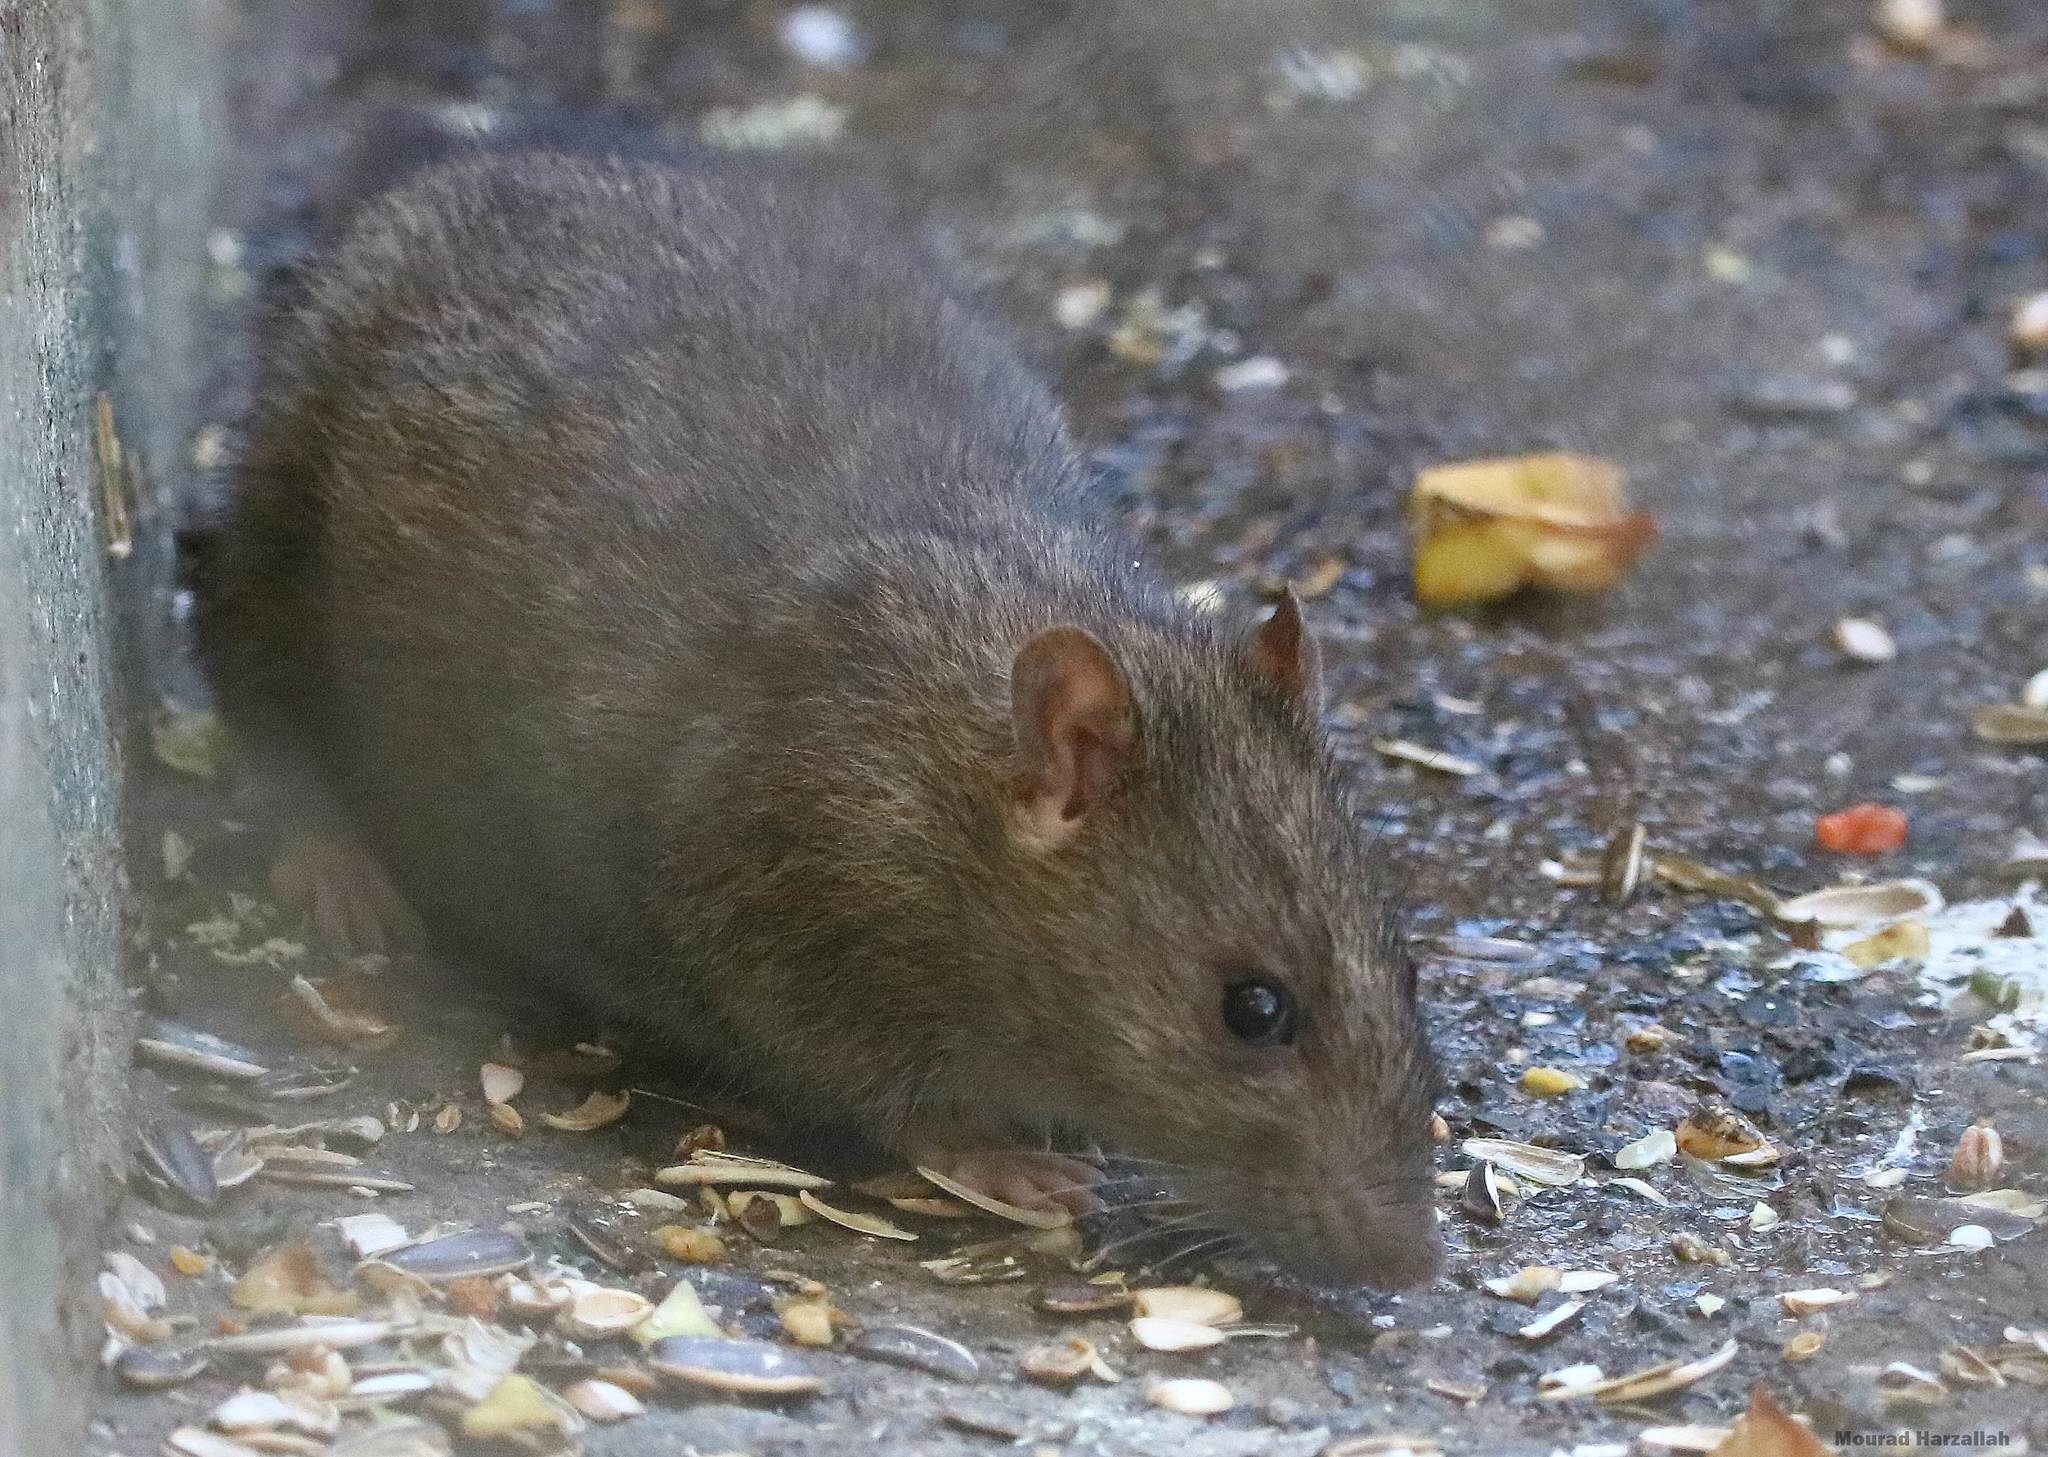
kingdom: Animalia
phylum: Chordata
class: Mammalia
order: Rodentia
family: Muridae
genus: Rattus
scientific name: Rattus norvegicus
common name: Brown rat
